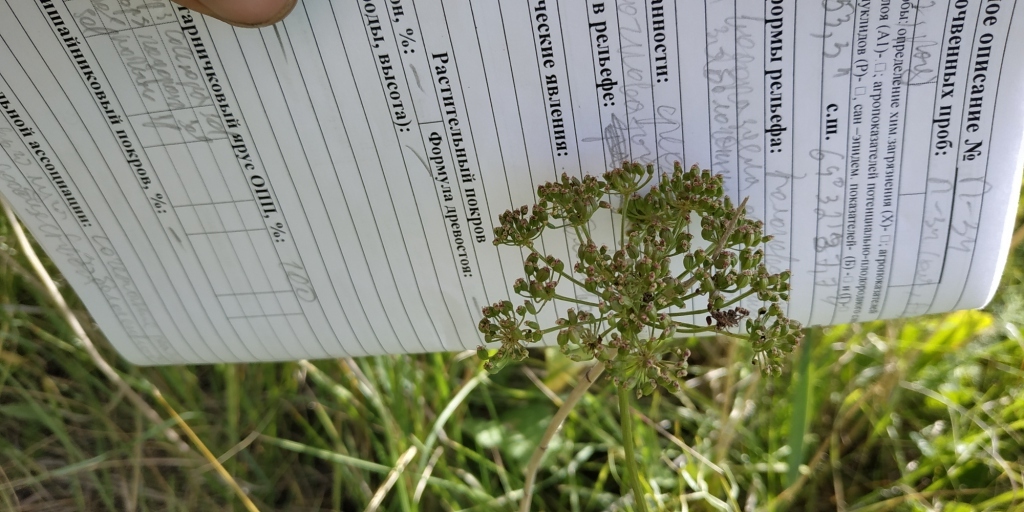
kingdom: Plantae
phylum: Tracheophyta
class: Magnoliopsida
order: Apiales
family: Apiaceae
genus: Cenolophium
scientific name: Cenolophium fischeri
